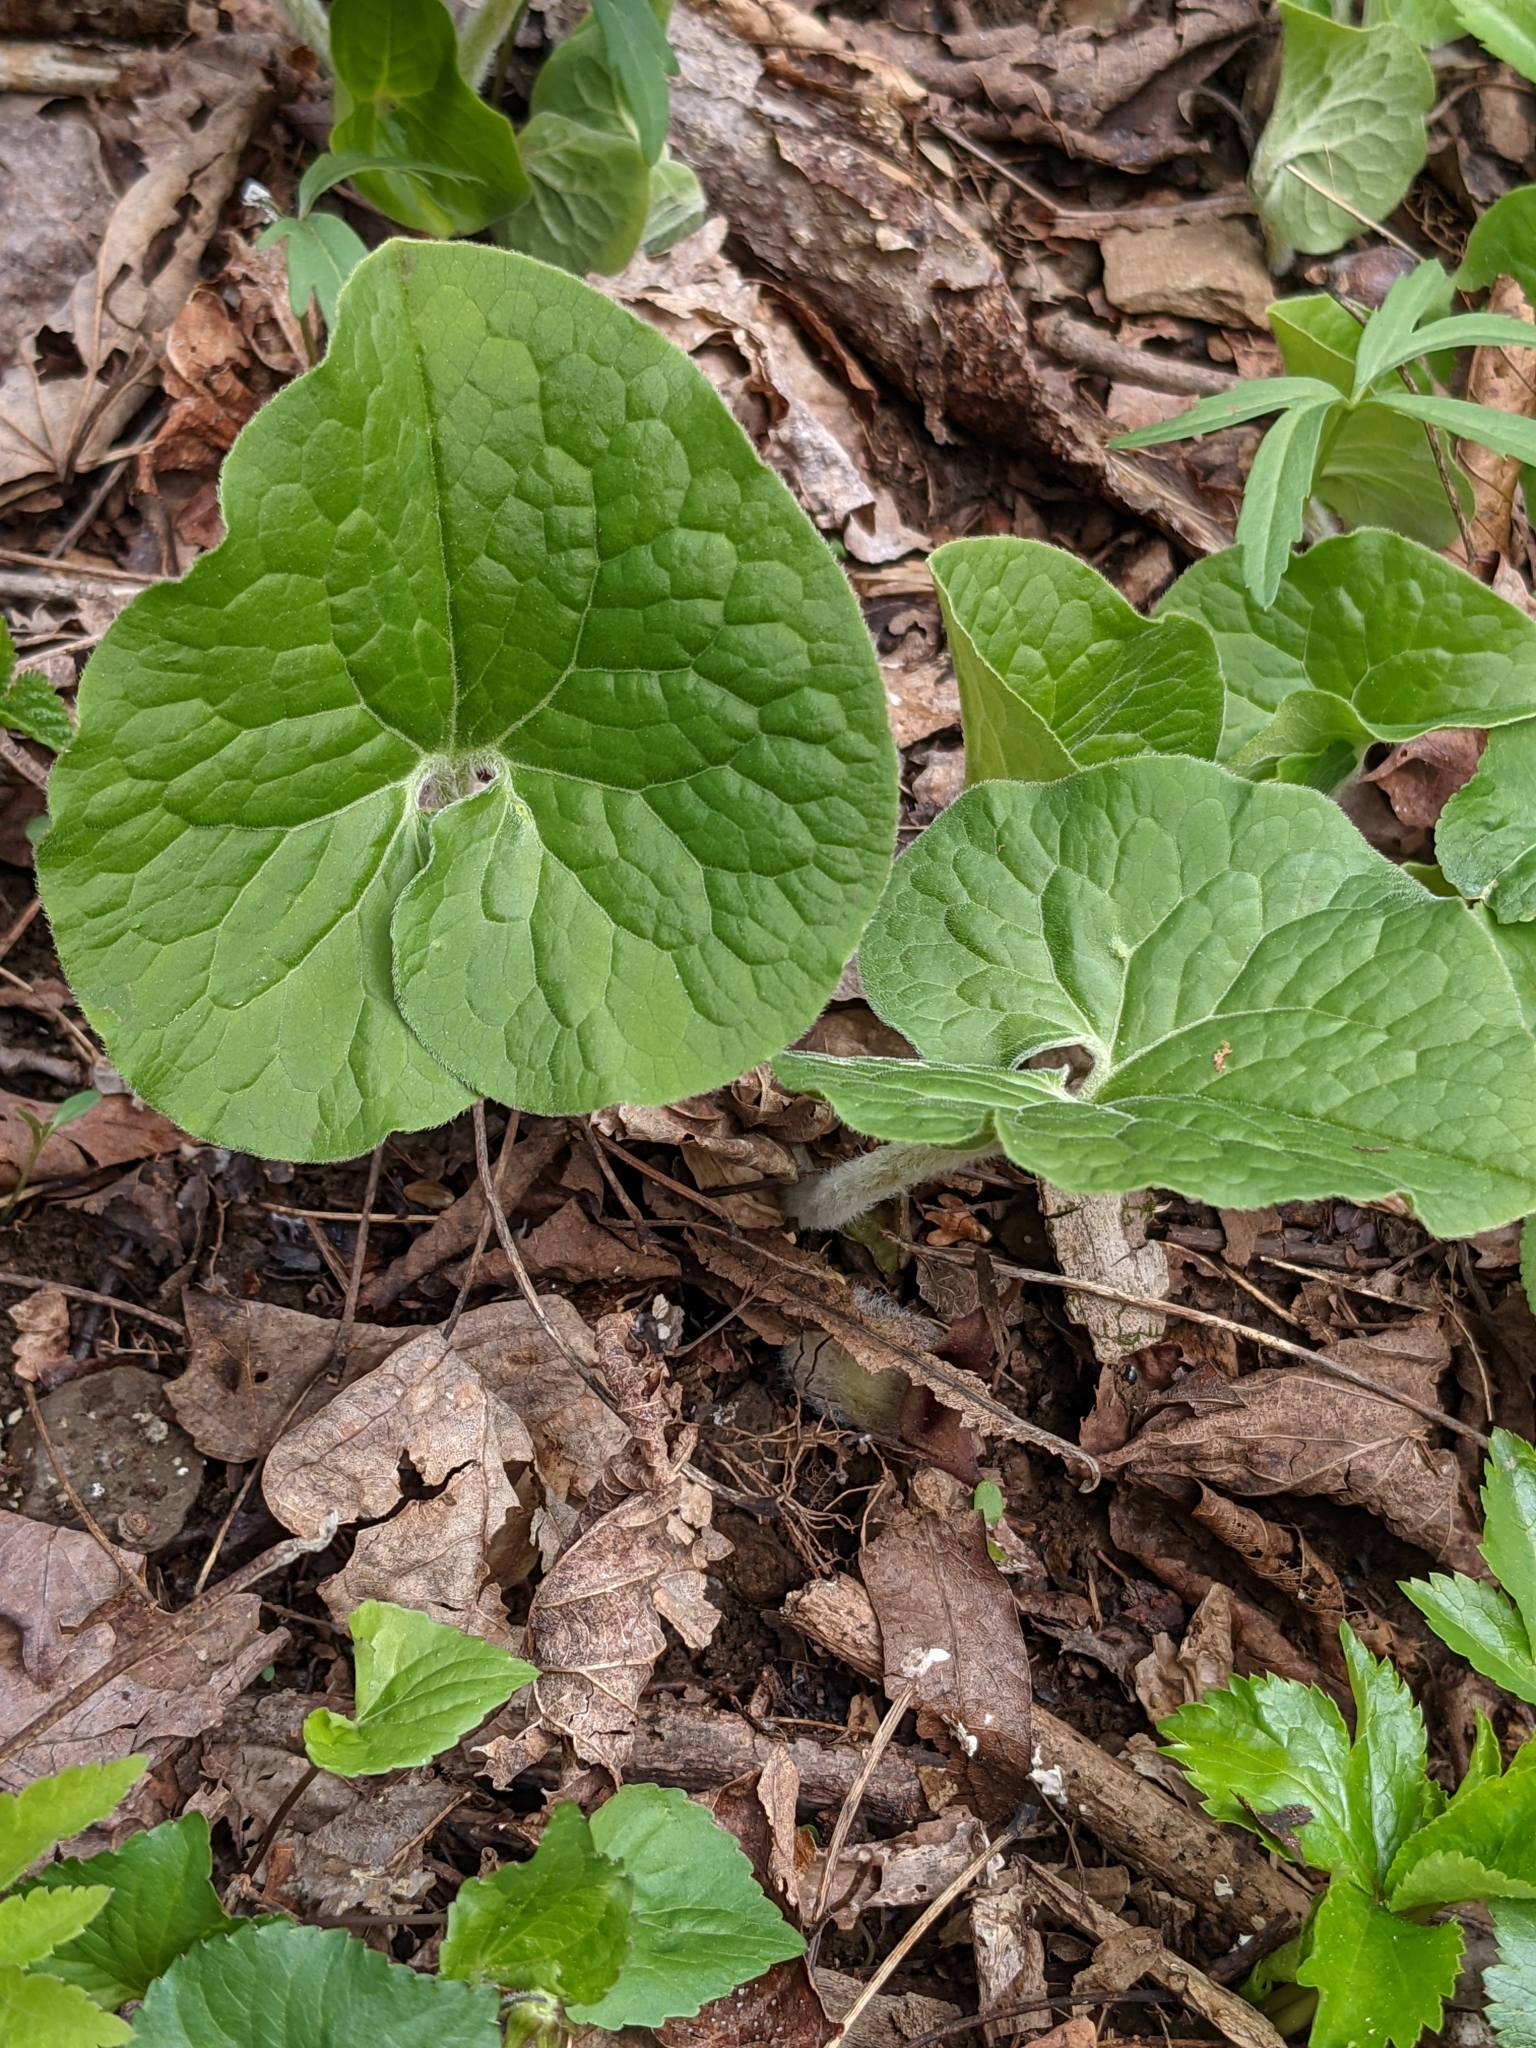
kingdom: Plantae
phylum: Tracheophyta
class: Magnoliopsida
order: Piperales
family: Aristolochiaceae
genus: Asarum
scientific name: Asarum canadense
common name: Wild ginger
